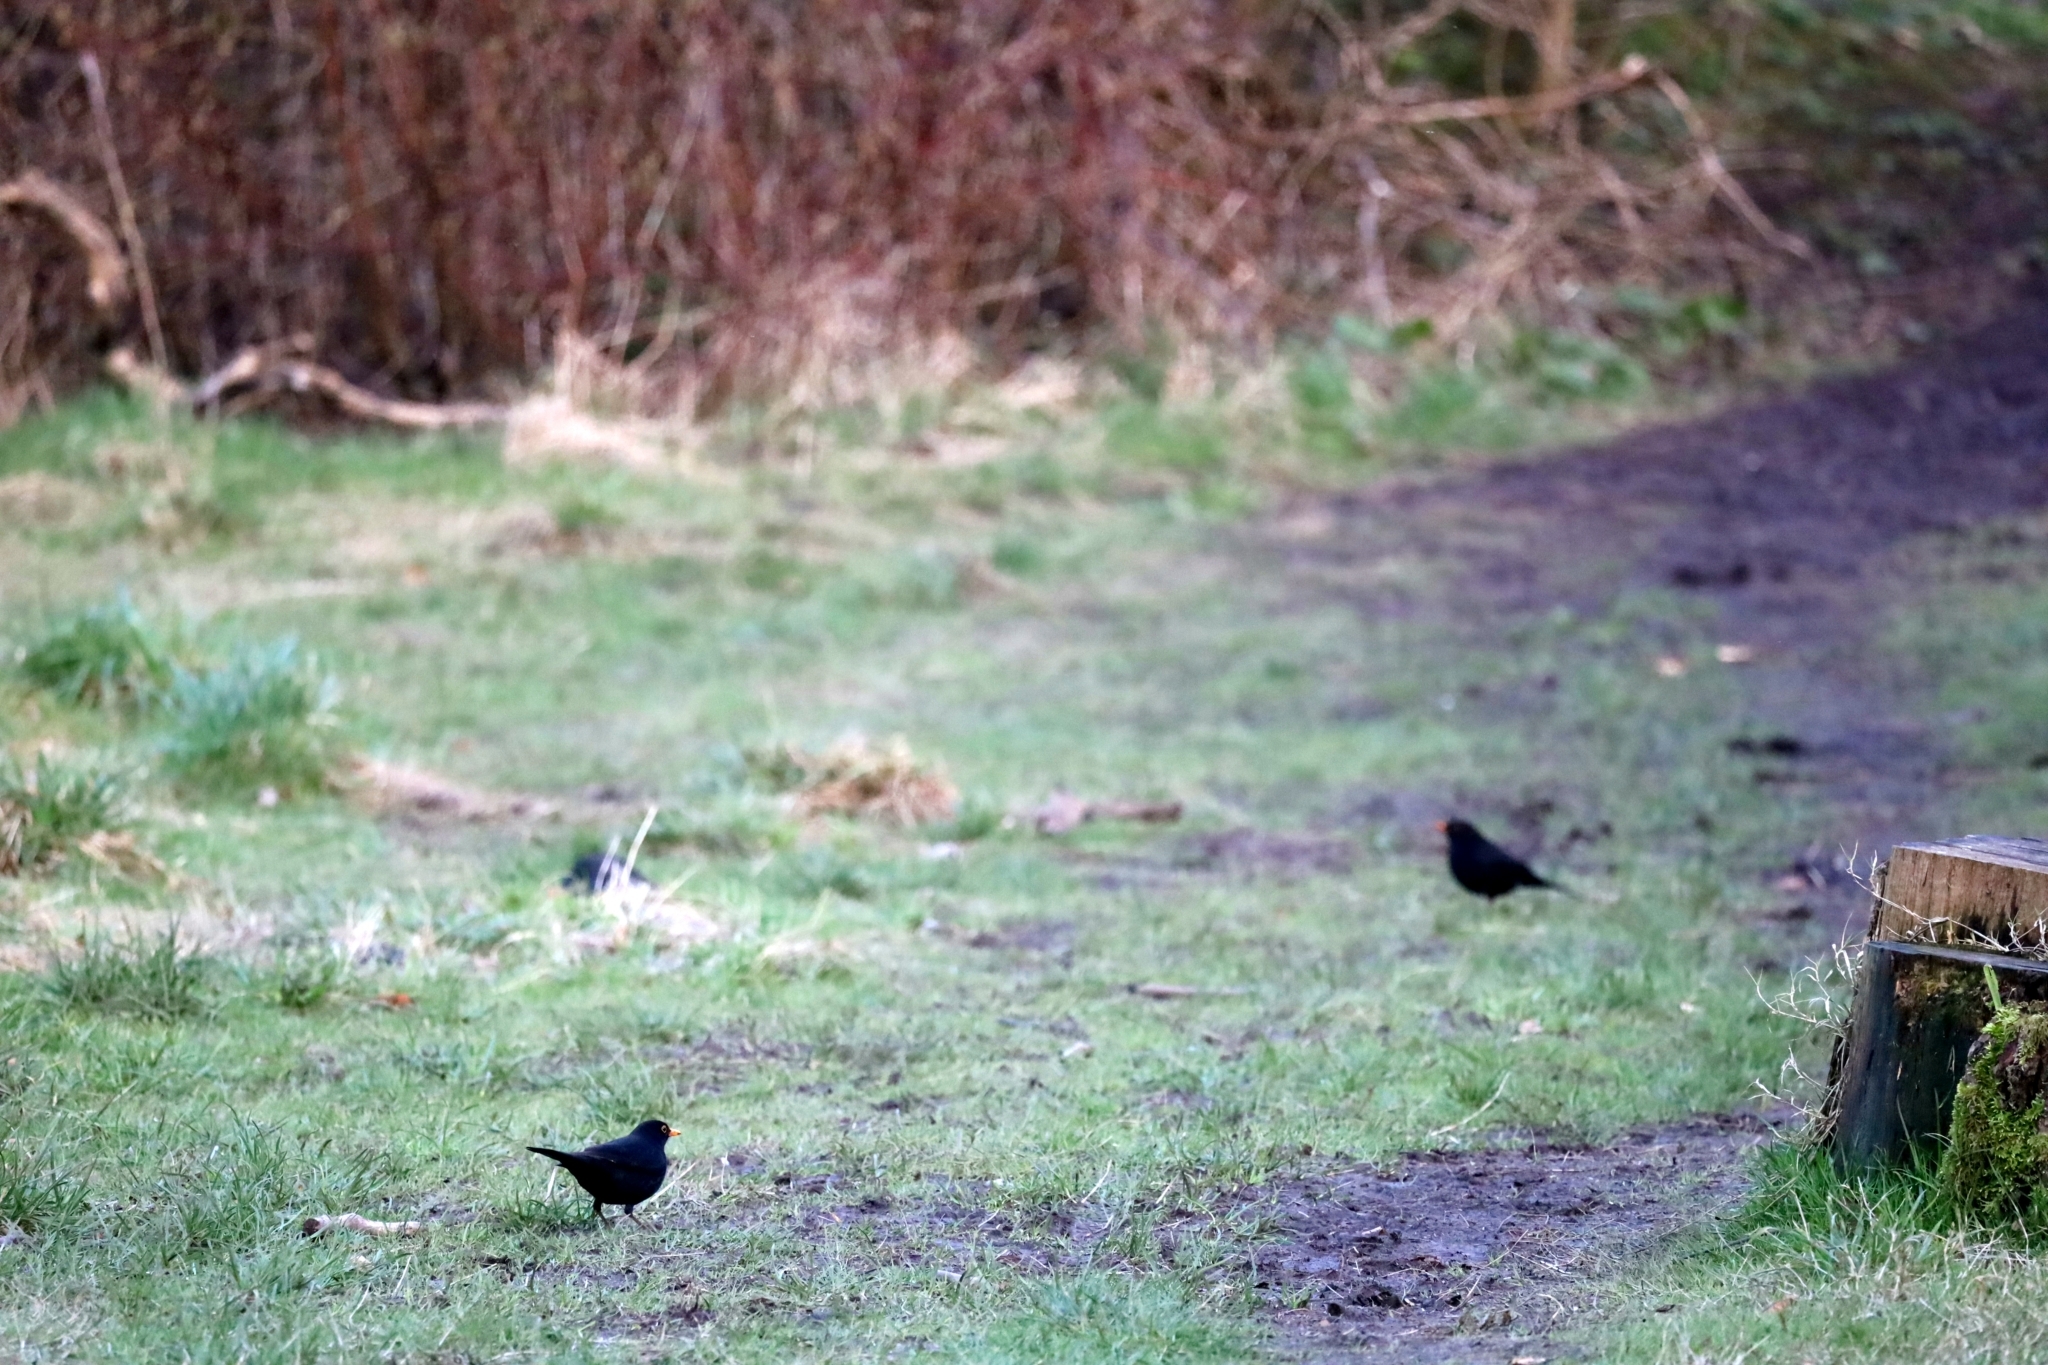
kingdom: Animalia
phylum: Chordata
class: Aves
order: Passeriformes
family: Turdidae
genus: Turdus
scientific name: Turdus merula
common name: Common blackbird
